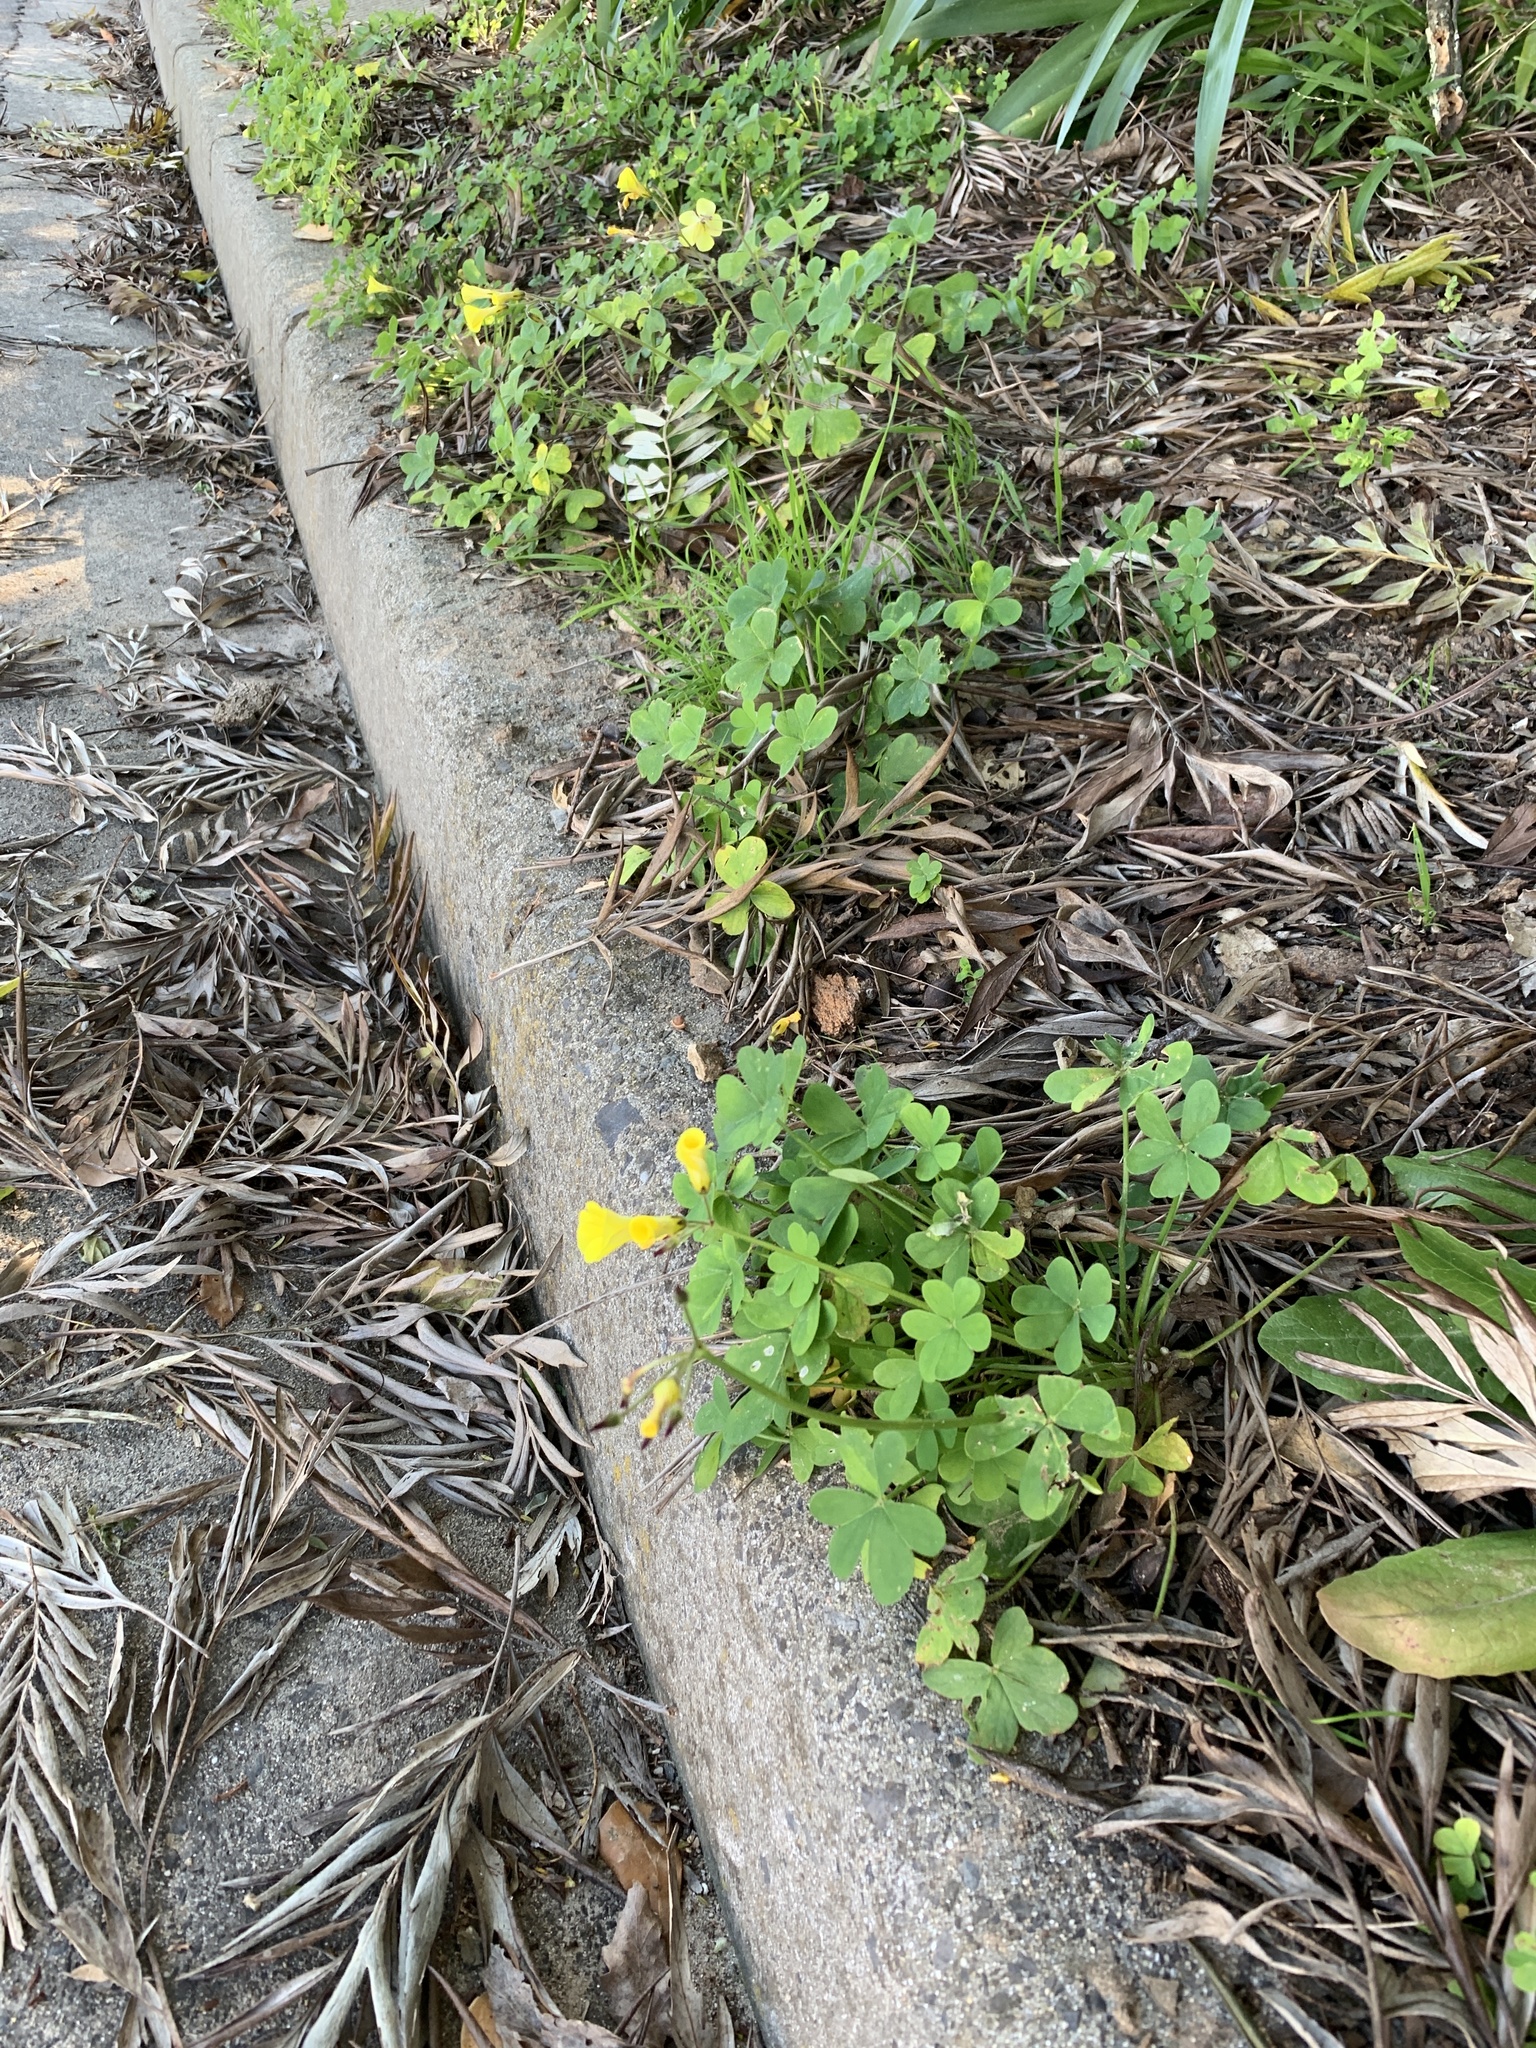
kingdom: Plantae
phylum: Tracheophyta
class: Magnoliopsida
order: Oxalidales
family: Oxalidaceae
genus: Oxalis
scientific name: Oxalis pes-caprae
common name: Bermuda-buttercup
